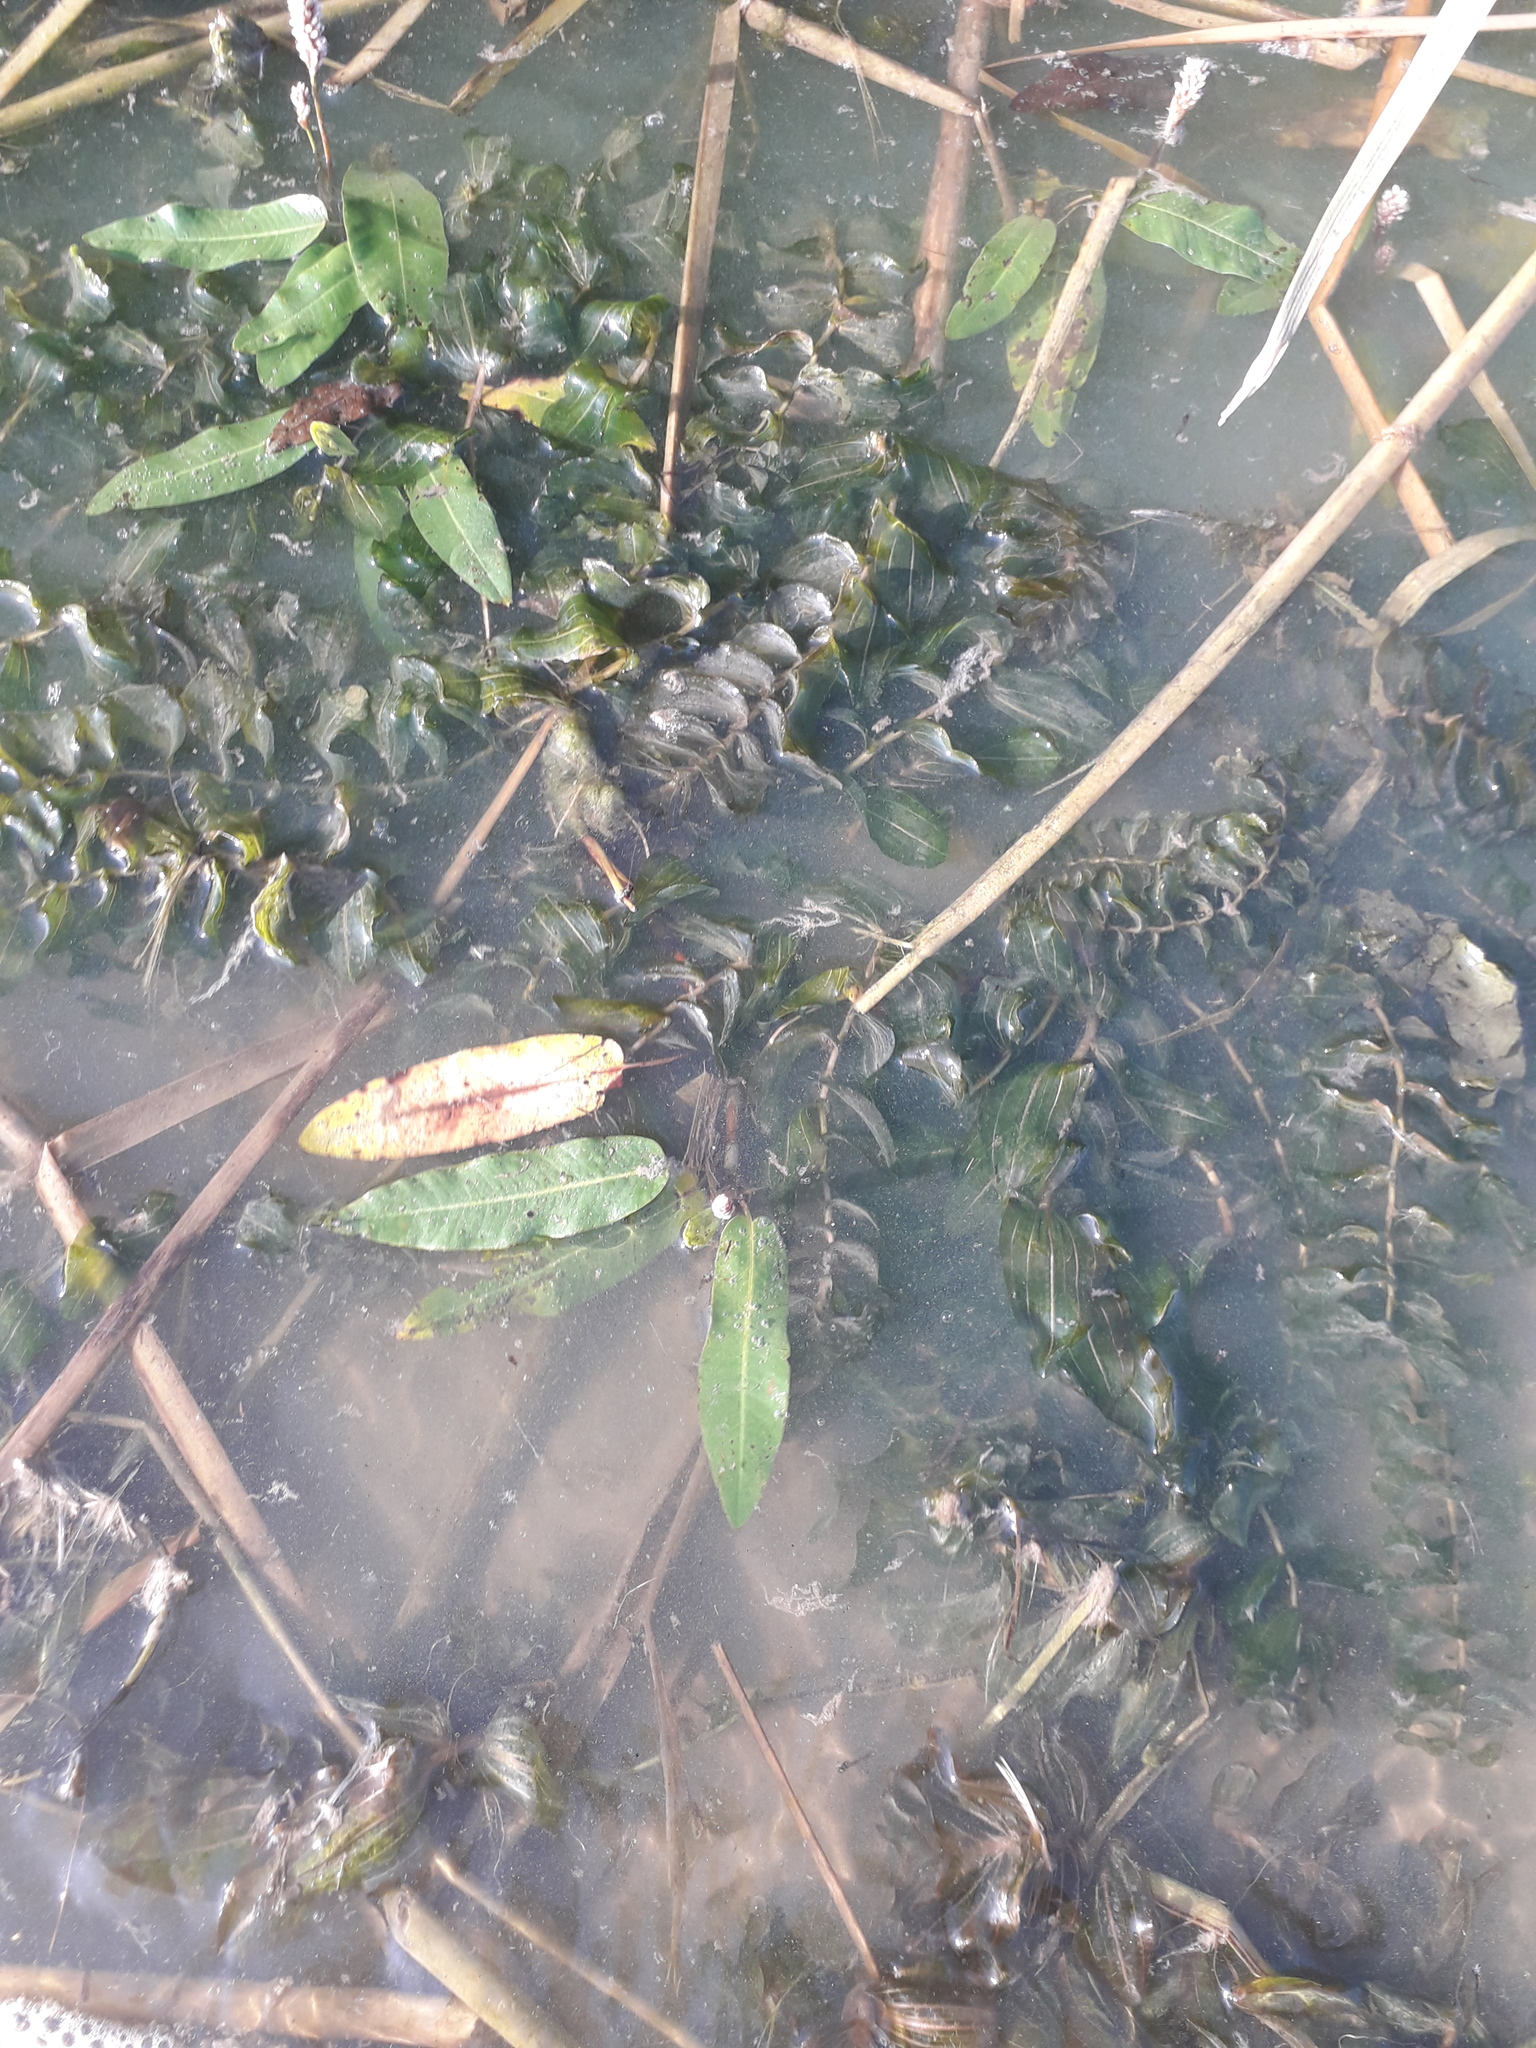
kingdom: Plantae
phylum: Tracheophyta
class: Liliopsida
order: Alismatales
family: Potamogetonaceae
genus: Potamogeton
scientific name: Potamogeton perfoliatus
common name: Perfoliate pondweed
